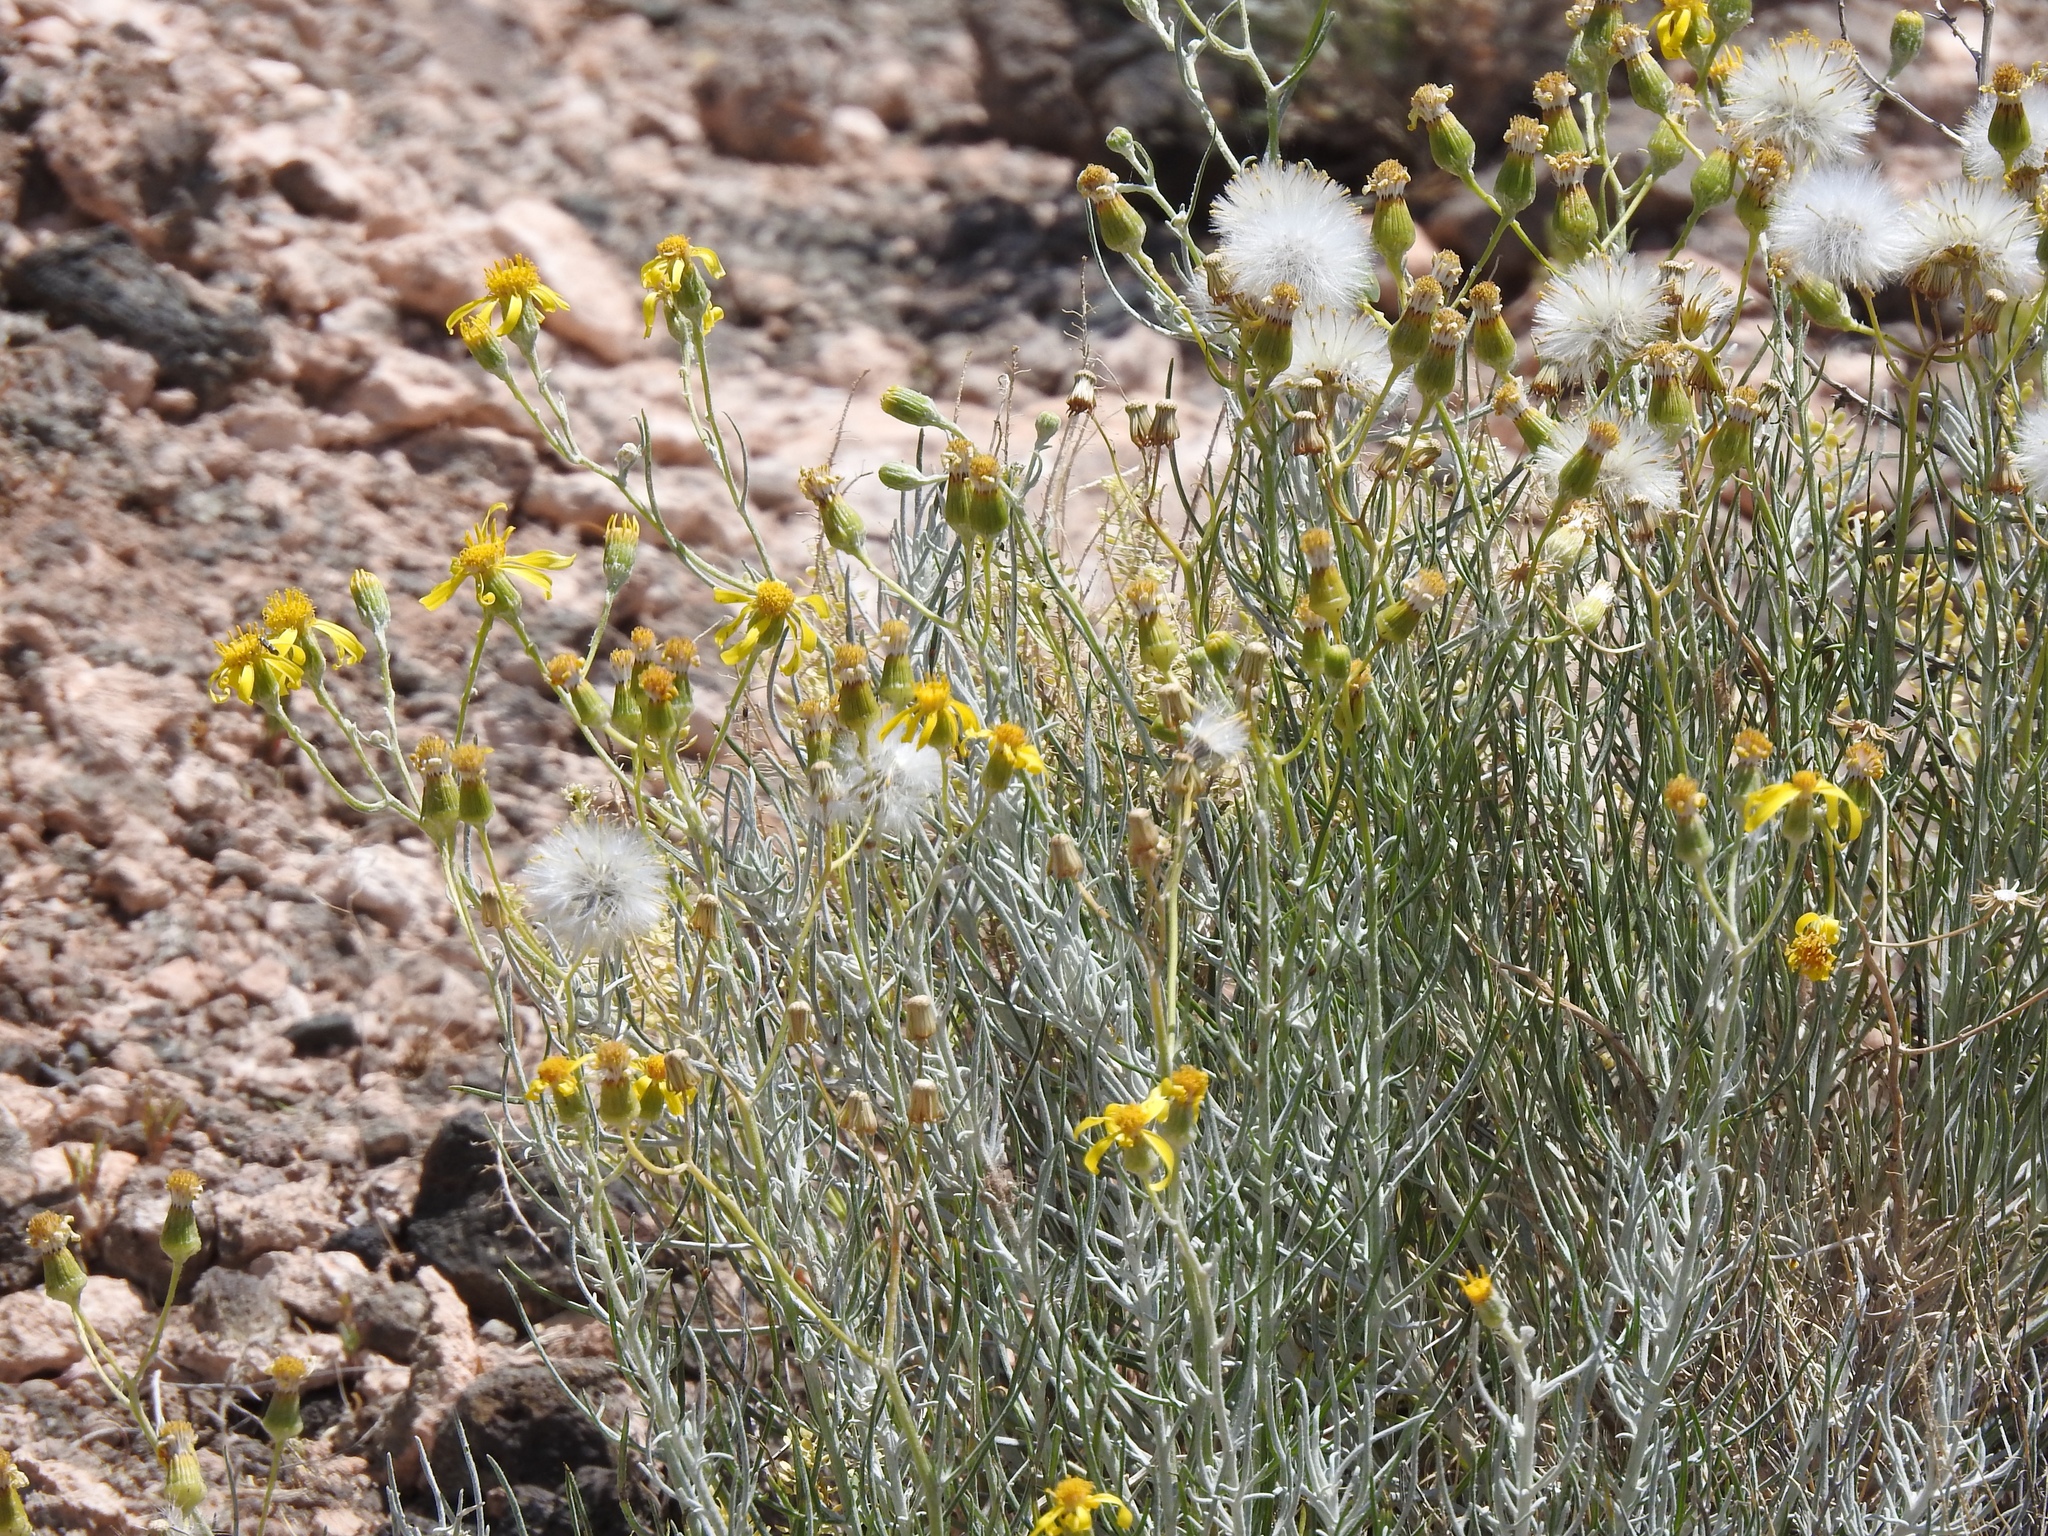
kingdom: Plantae
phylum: Tracheophyta
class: Magnoliopsida
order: Asterales
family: Asteraceae
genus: Senecio
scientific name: Senecio flaccidus
